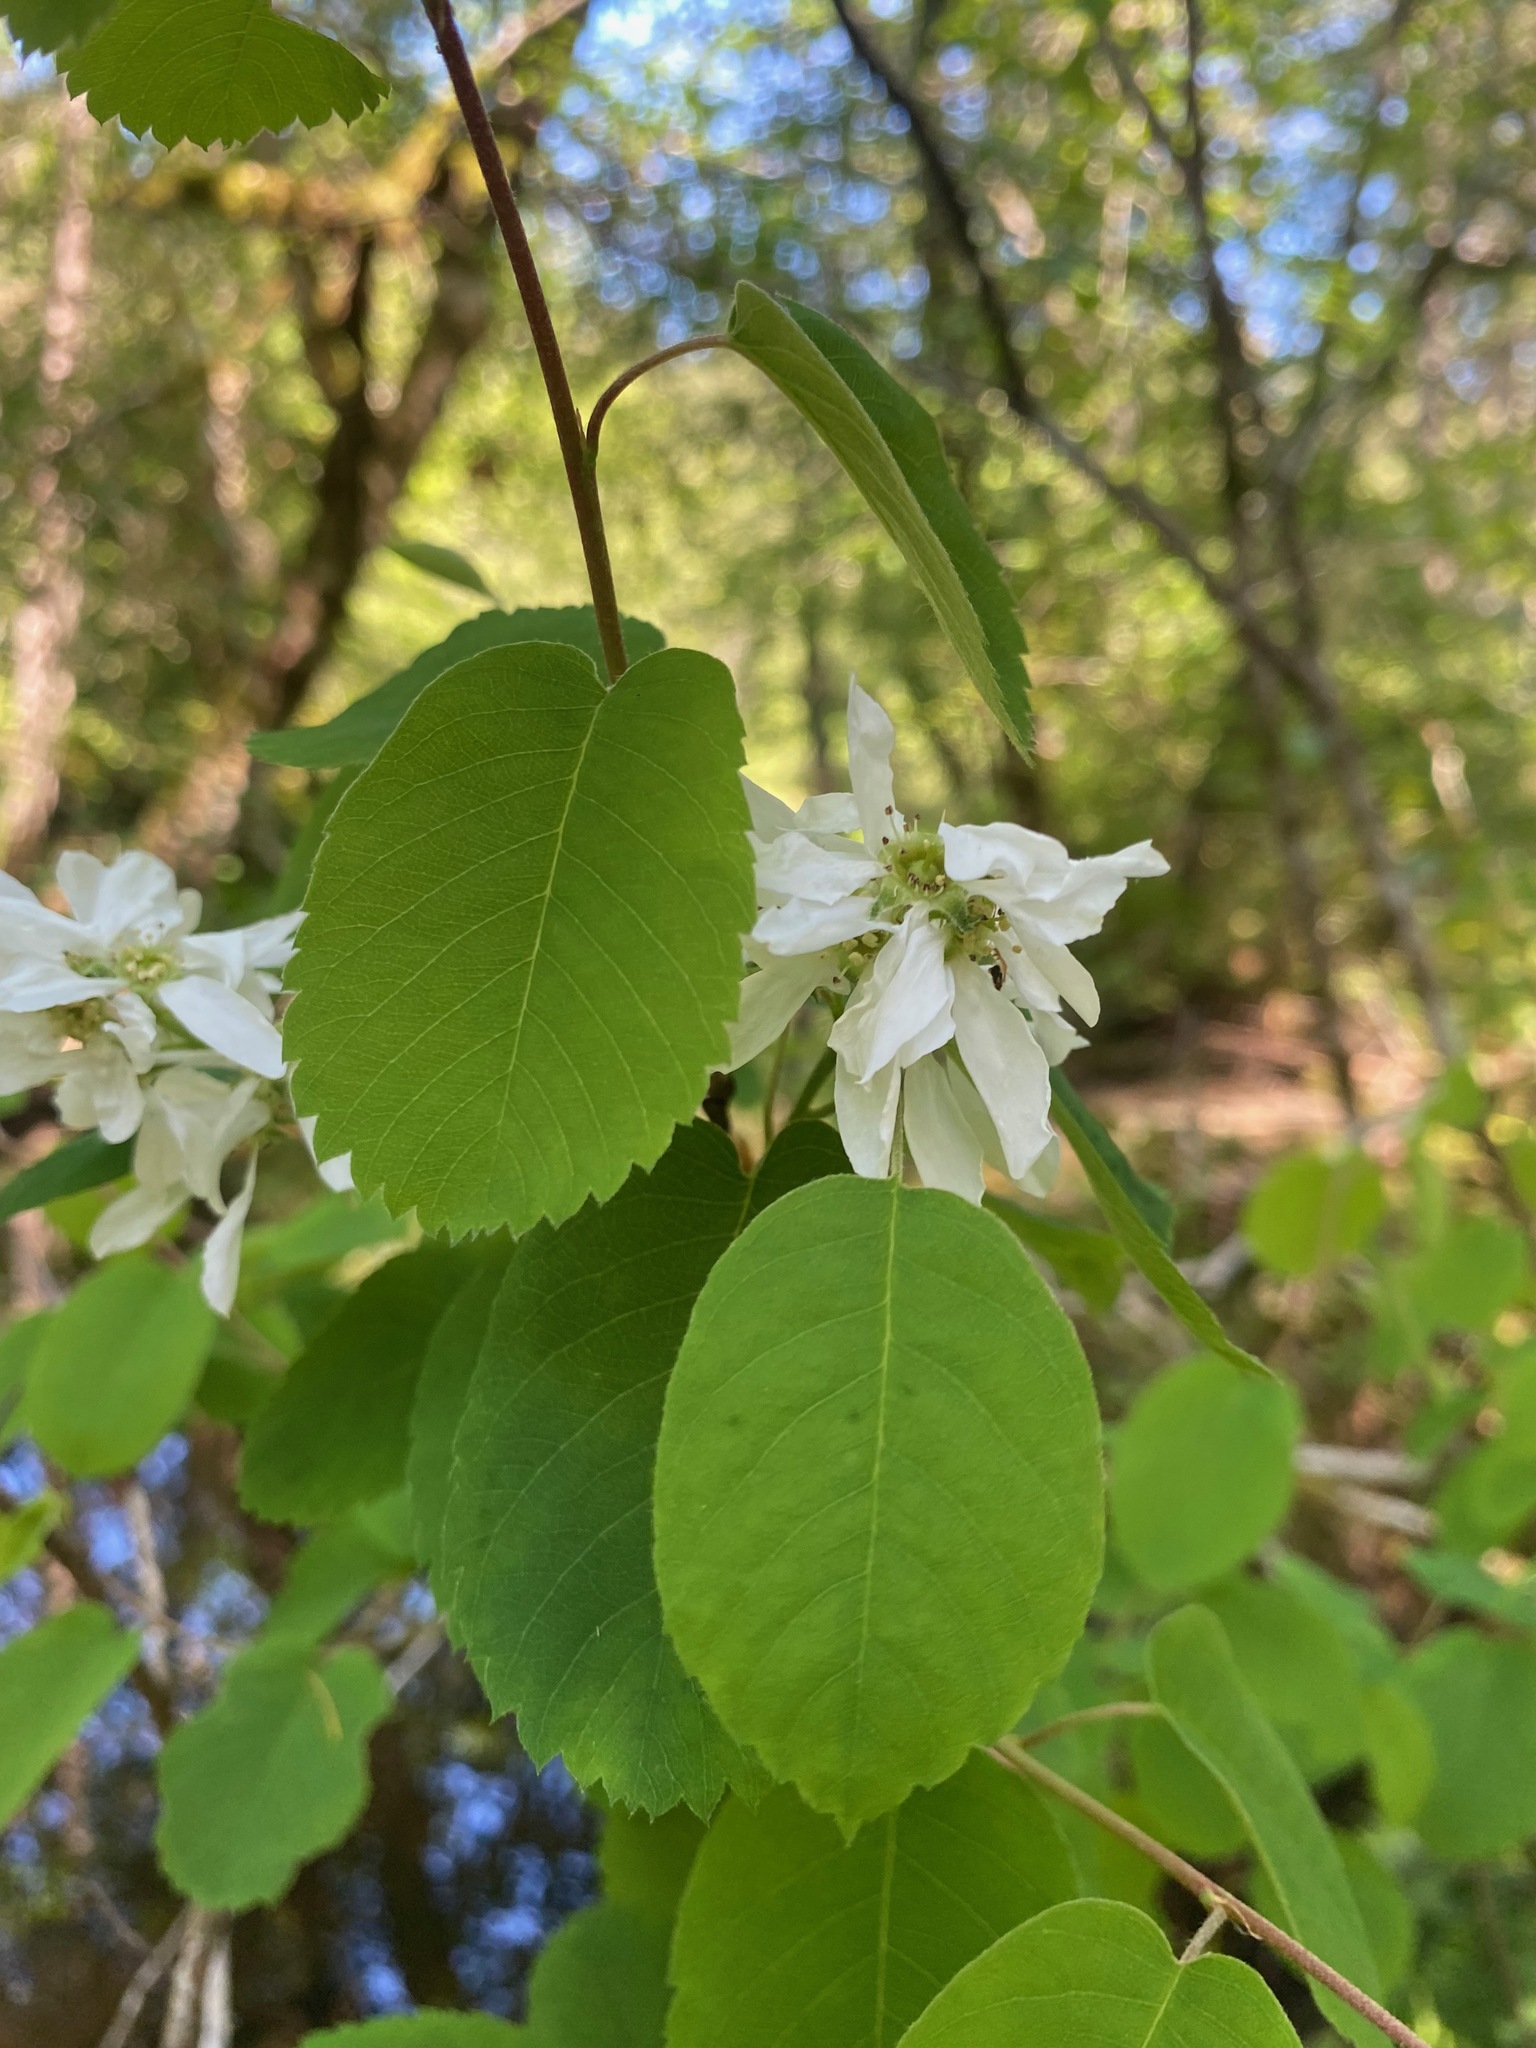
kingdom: Plantae
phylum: Tracheophyta
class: Magnoliopsida
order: Rosales
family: Rosaceae
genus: Amelanchier
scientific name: Amelanchier alnifolia
